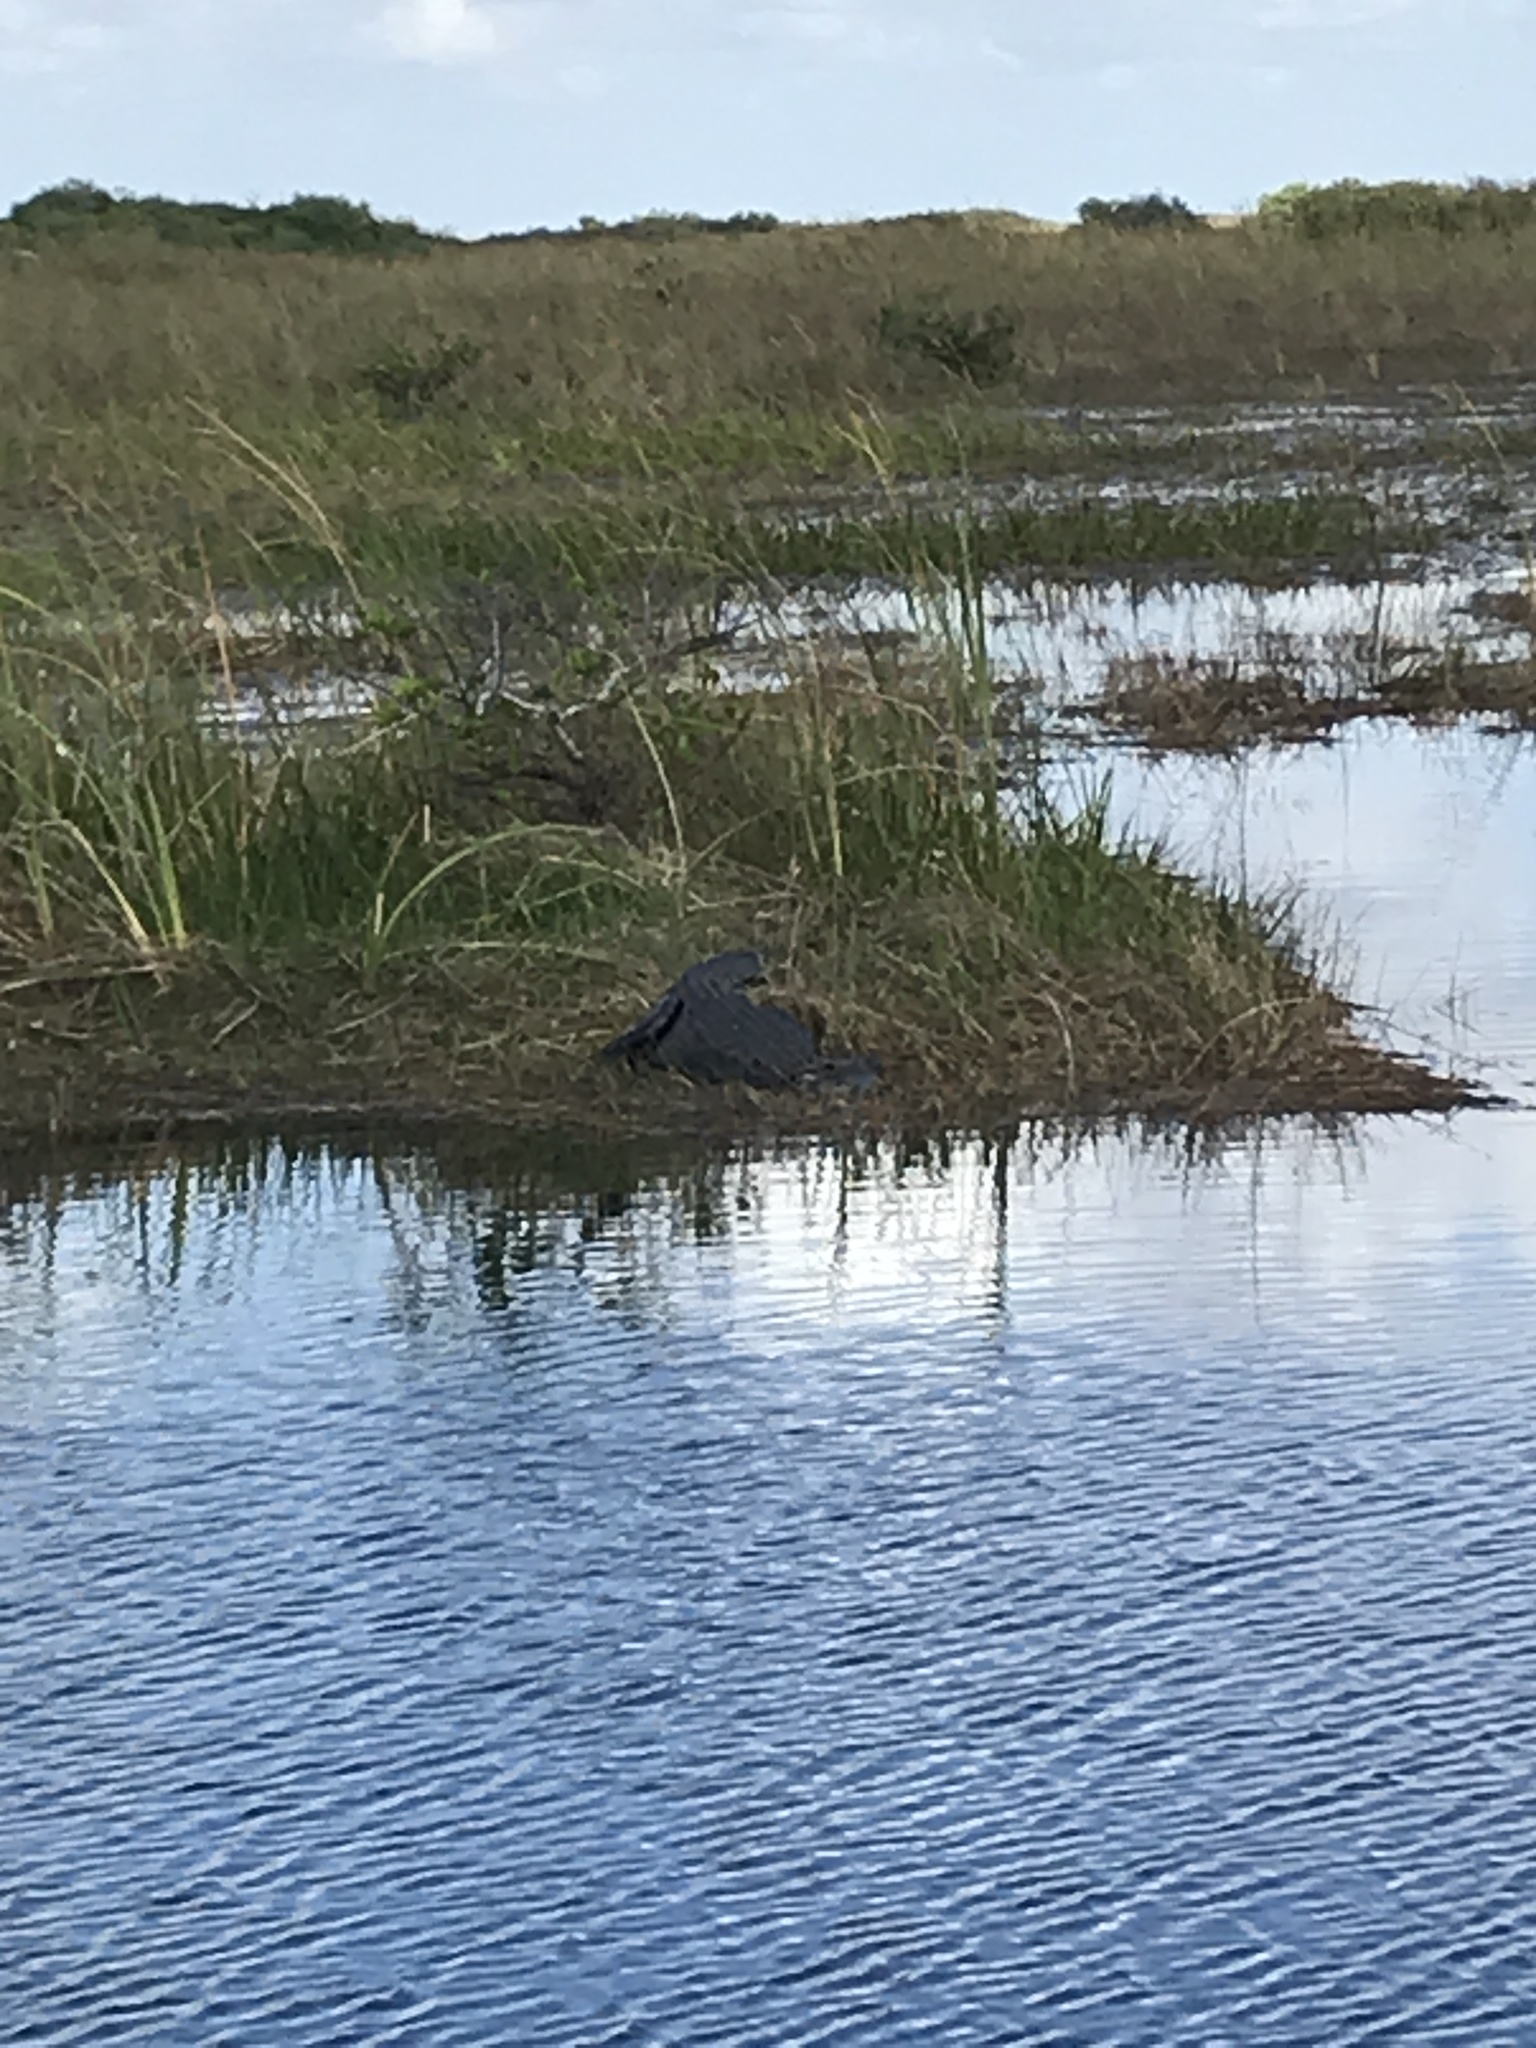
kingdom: Animalia
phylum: Chordata
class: Crocodylia
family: Alligatoridae
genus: Alligator
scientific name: Alligator mississippiensis
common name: American alligator
